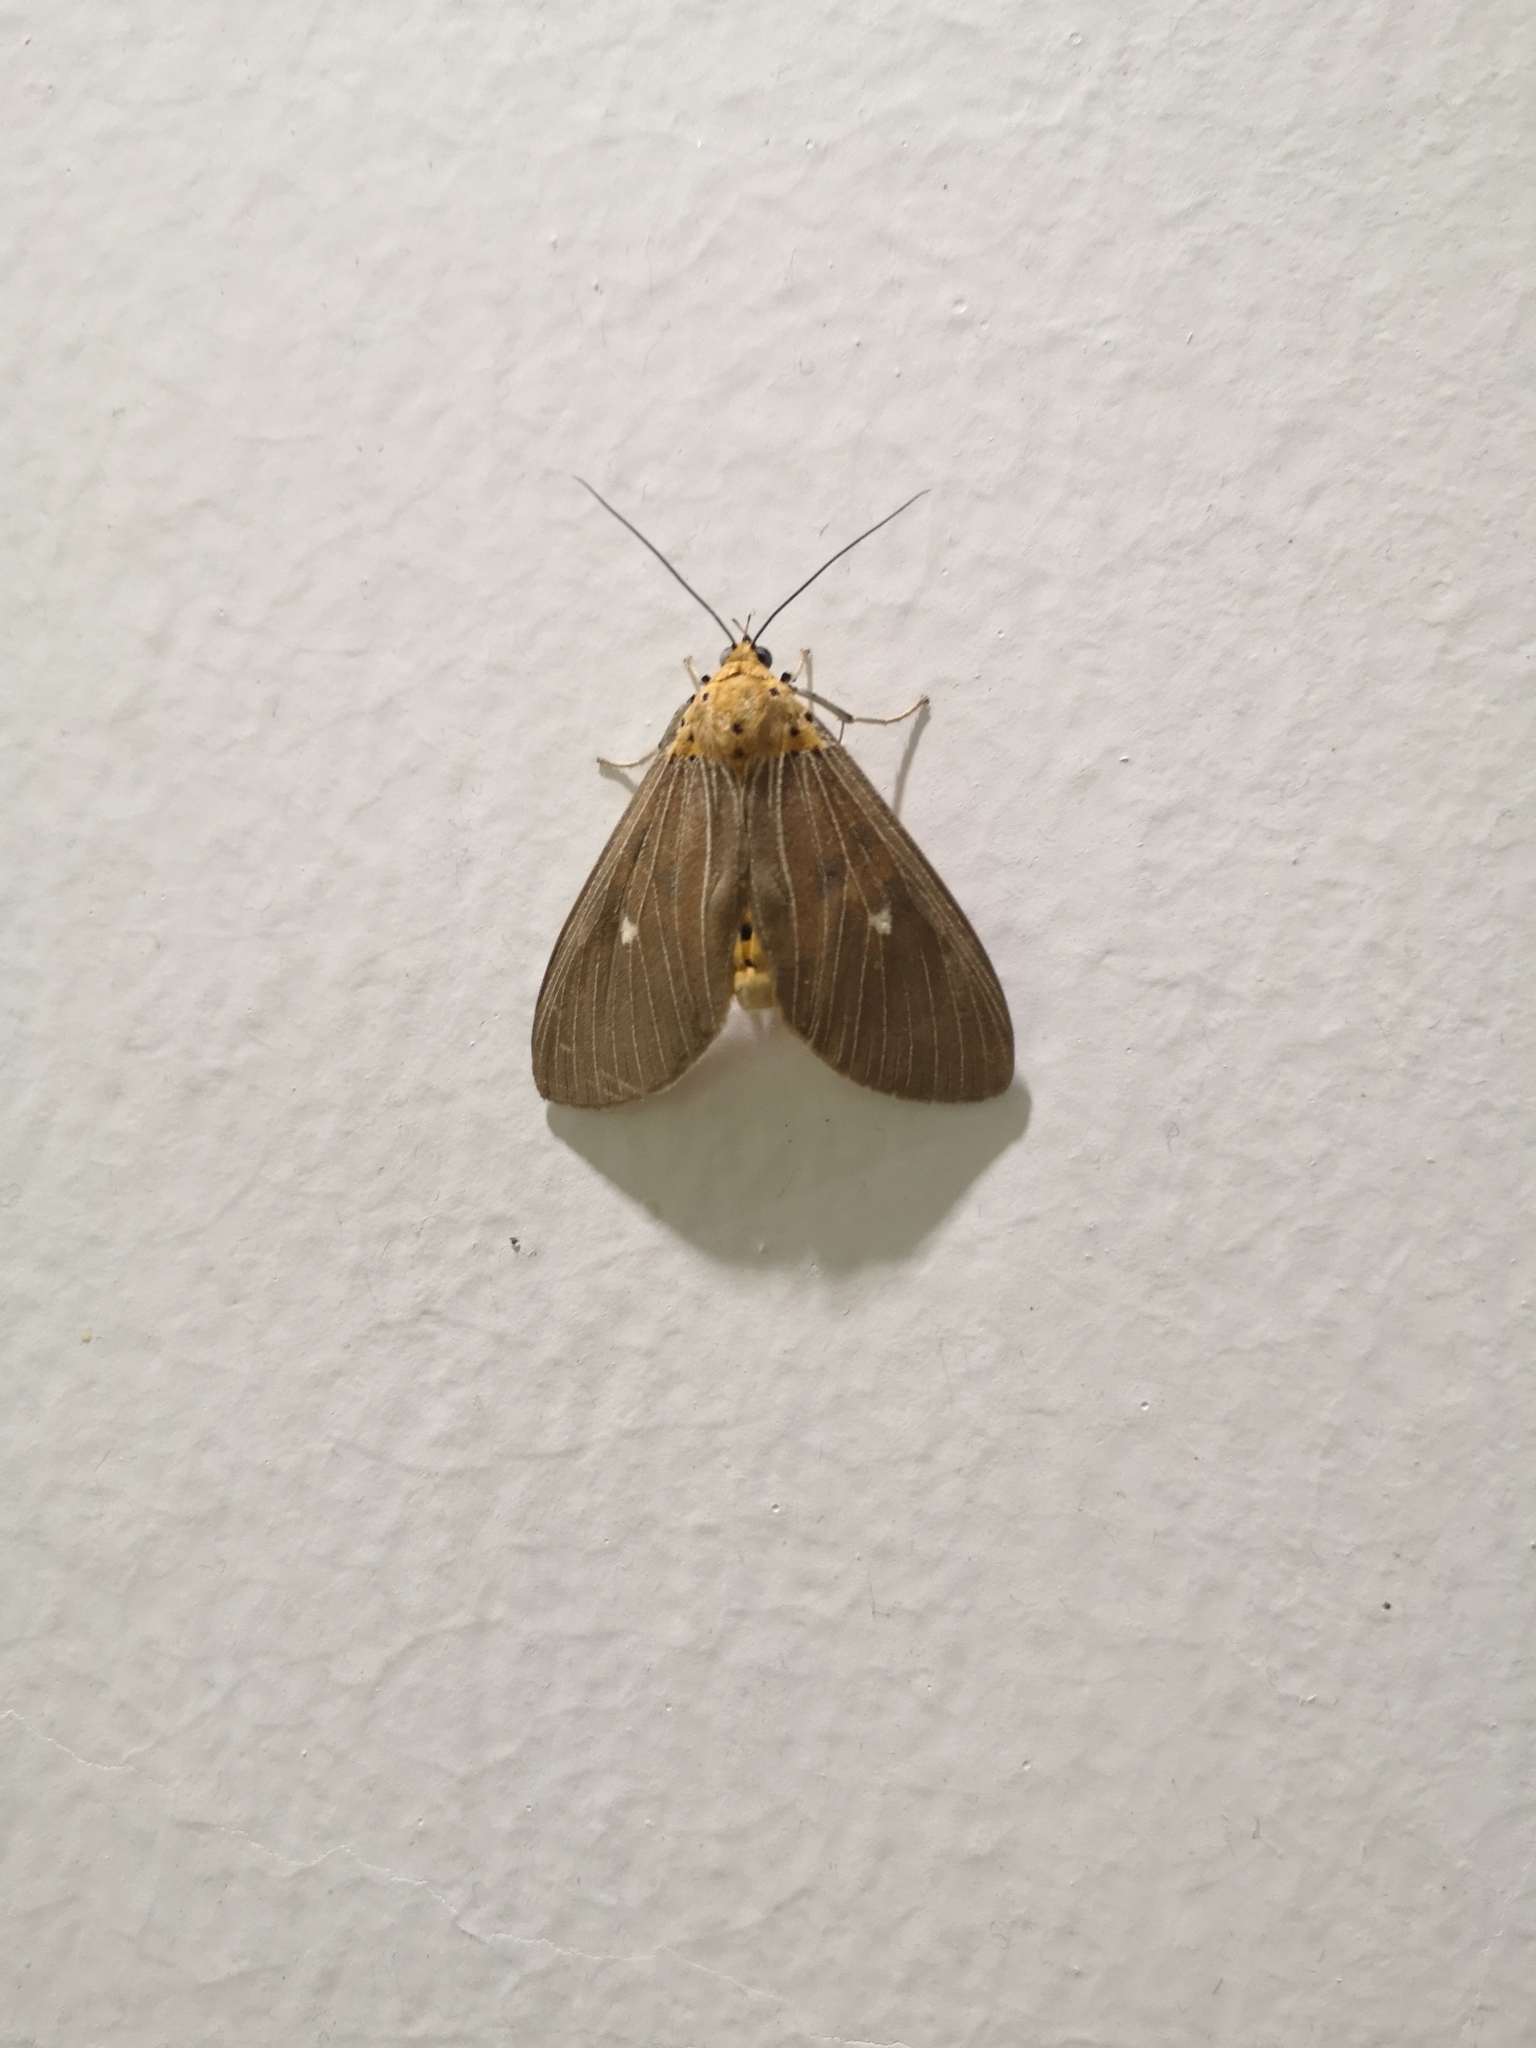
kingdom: Animalia
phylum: Arthropoda
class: Insecta
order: Lepidoptera
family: Erebidae
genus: Asota
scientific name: Asota caricae
